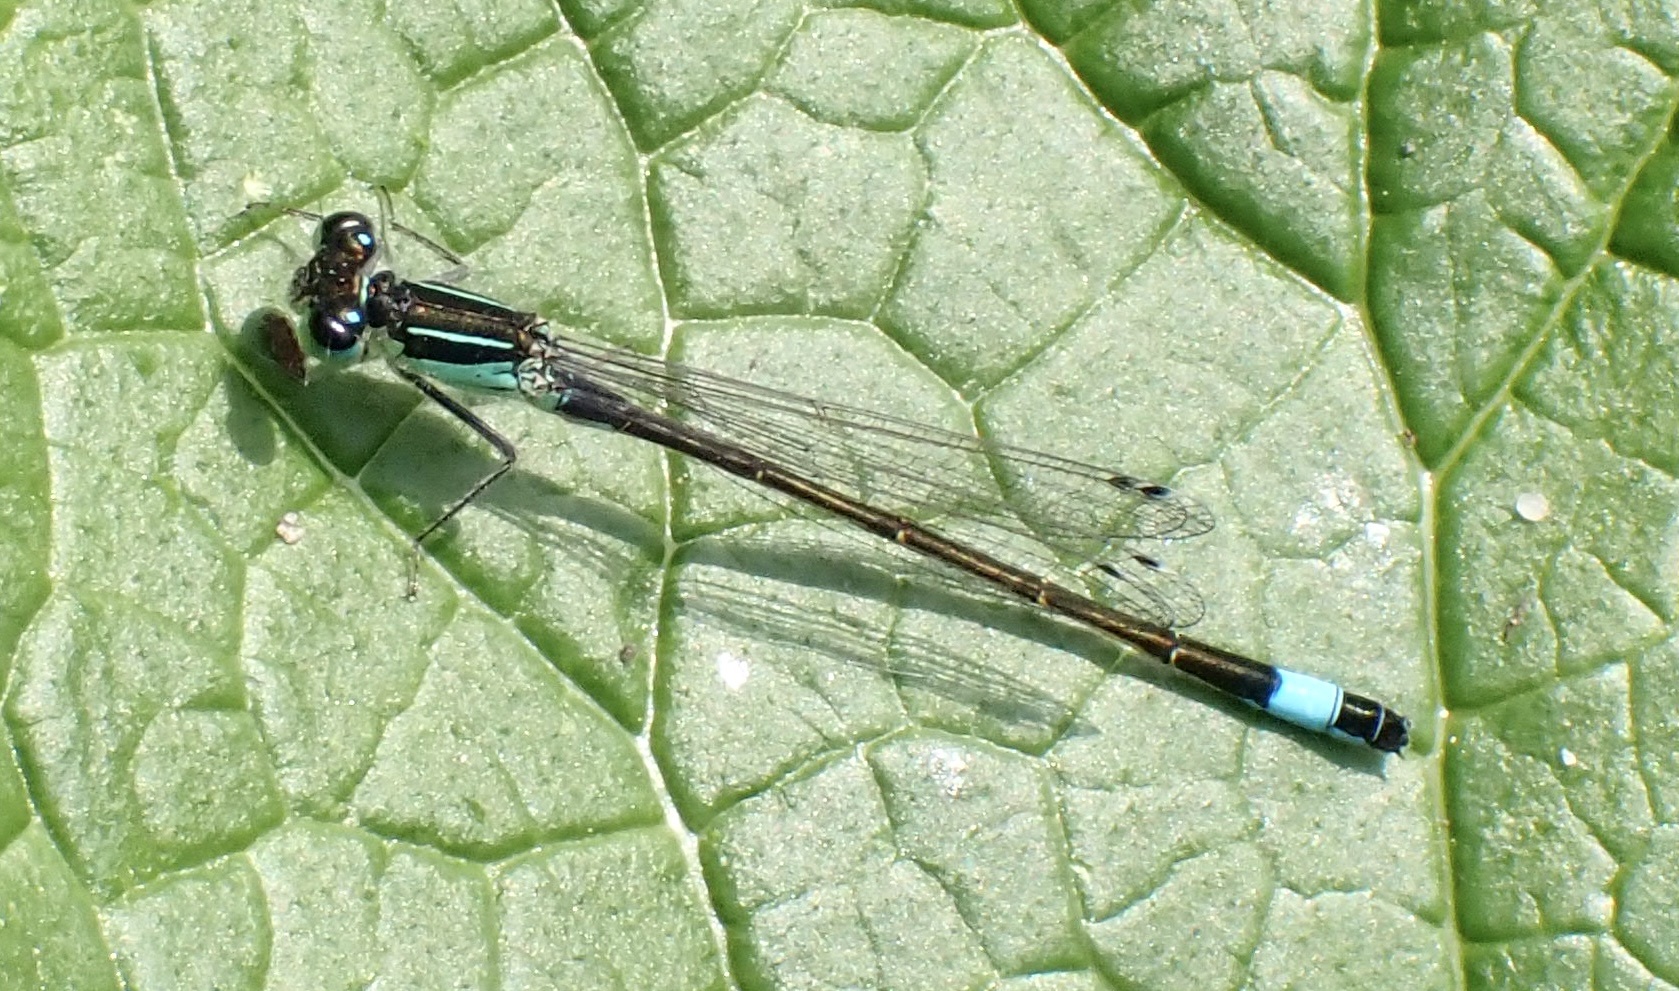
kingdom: Animalia
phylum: Arthropoda
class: Insecta
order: Odonata
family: Coenagrionidae
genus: Ischnura
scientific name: Ischnura elegans
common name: Blue-tailed damselfly
